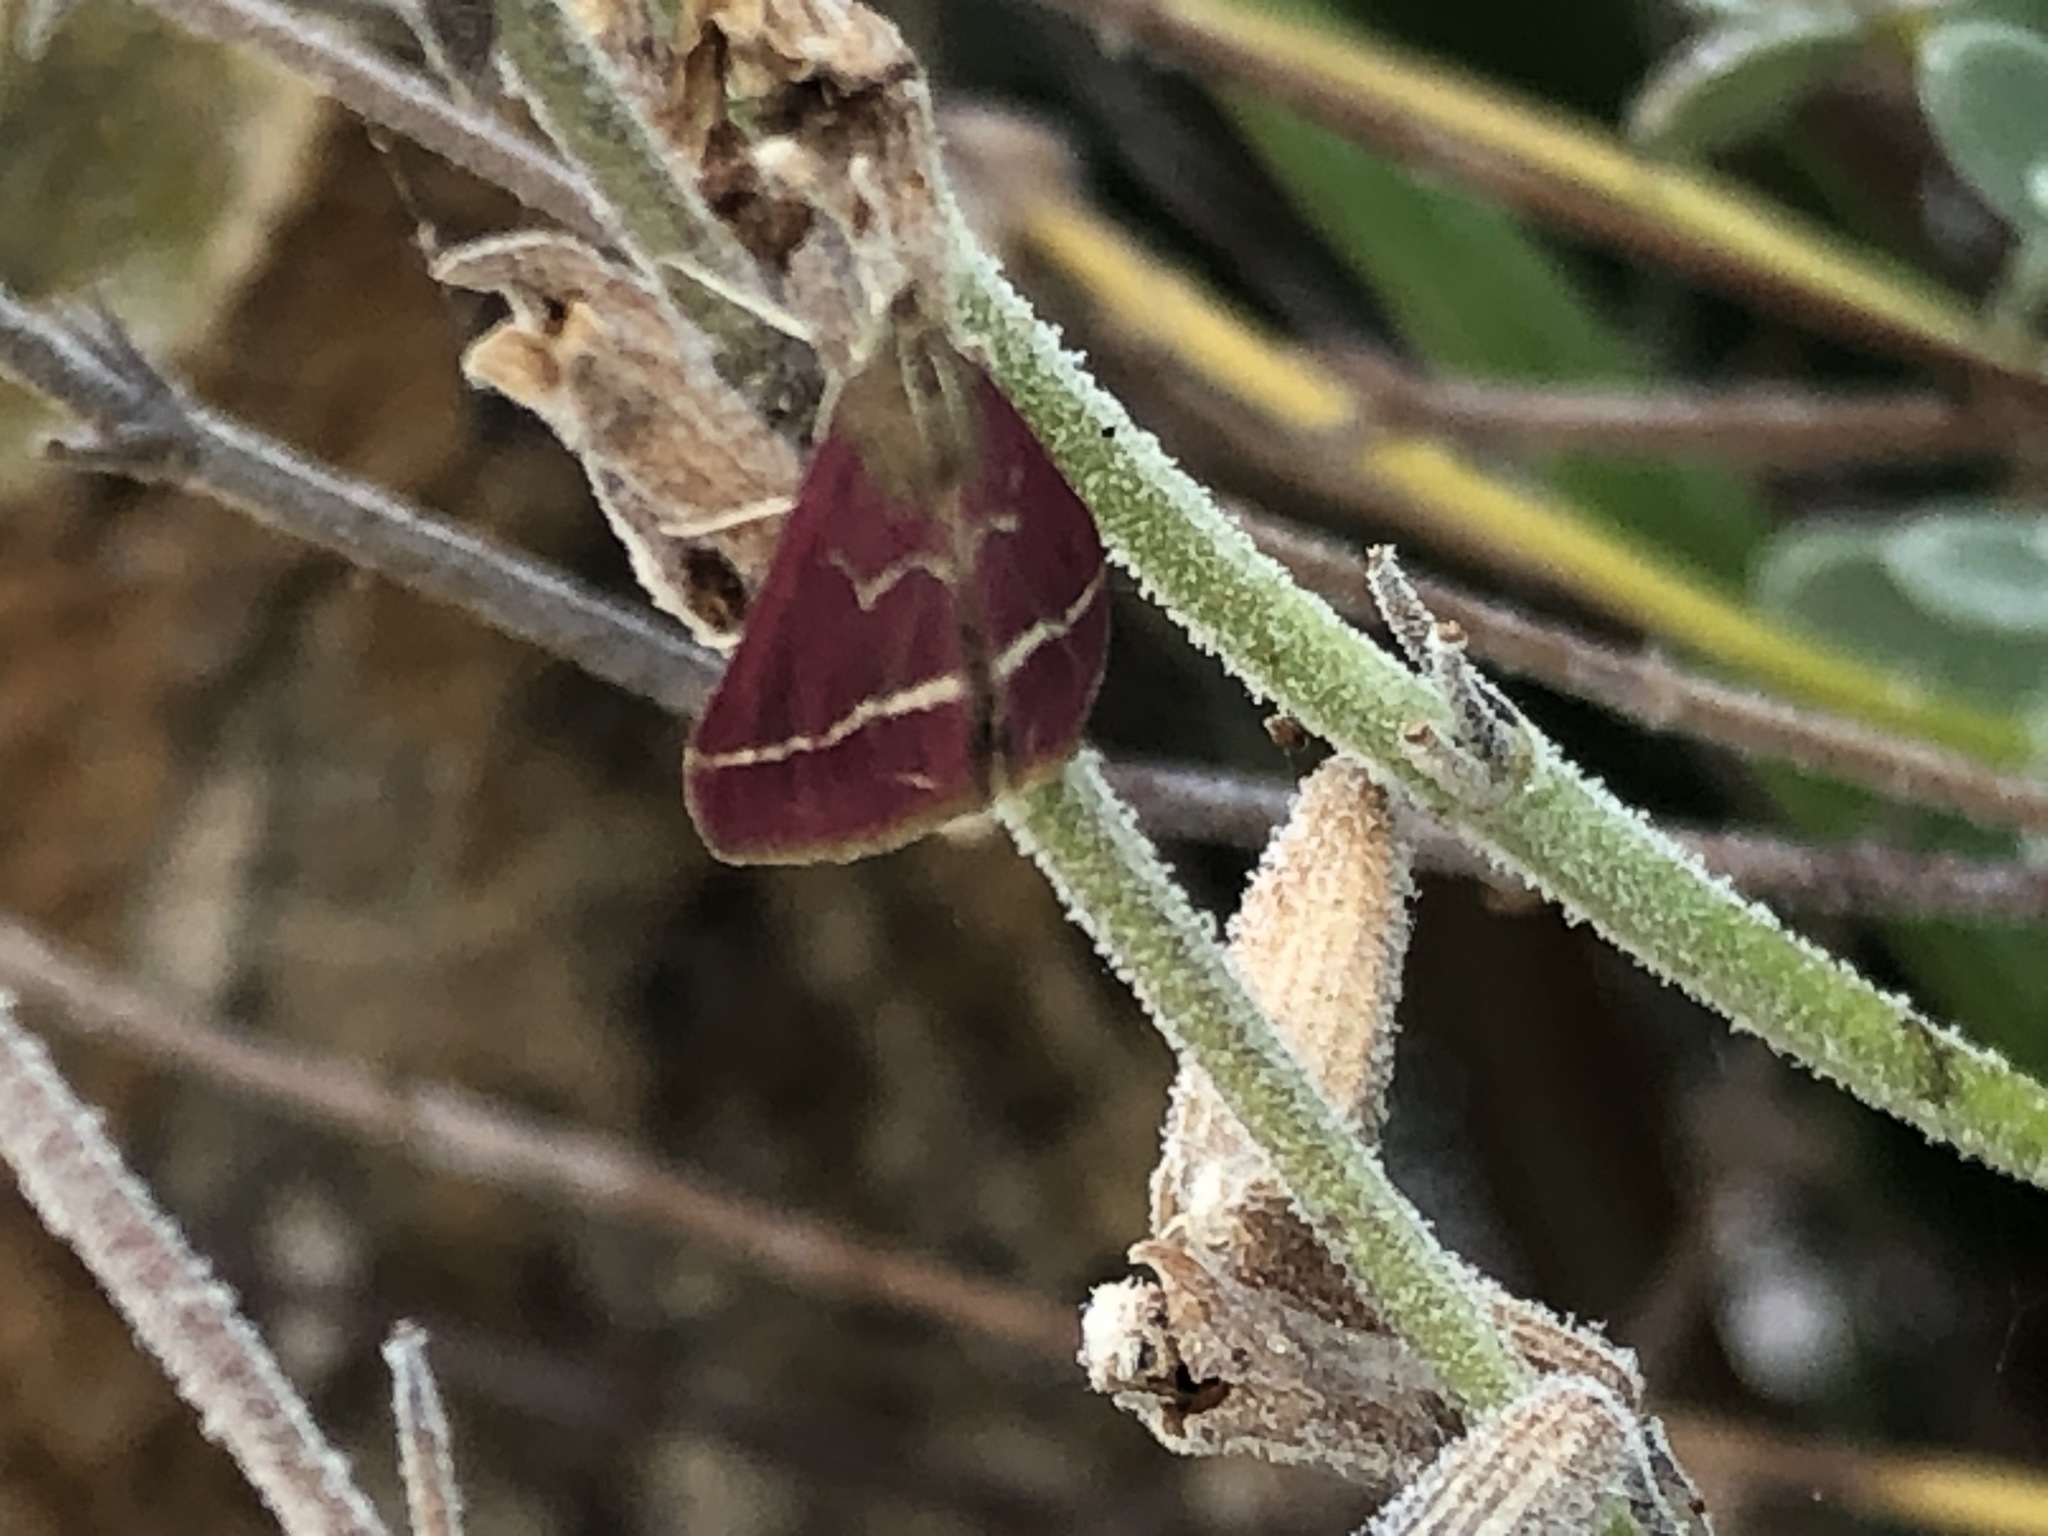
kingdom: Animalia
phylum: Arthropoda
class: Insecta
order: Lepidoptera
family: Crambidae
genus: Pyrausta
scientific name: Pyrausta volupialis
